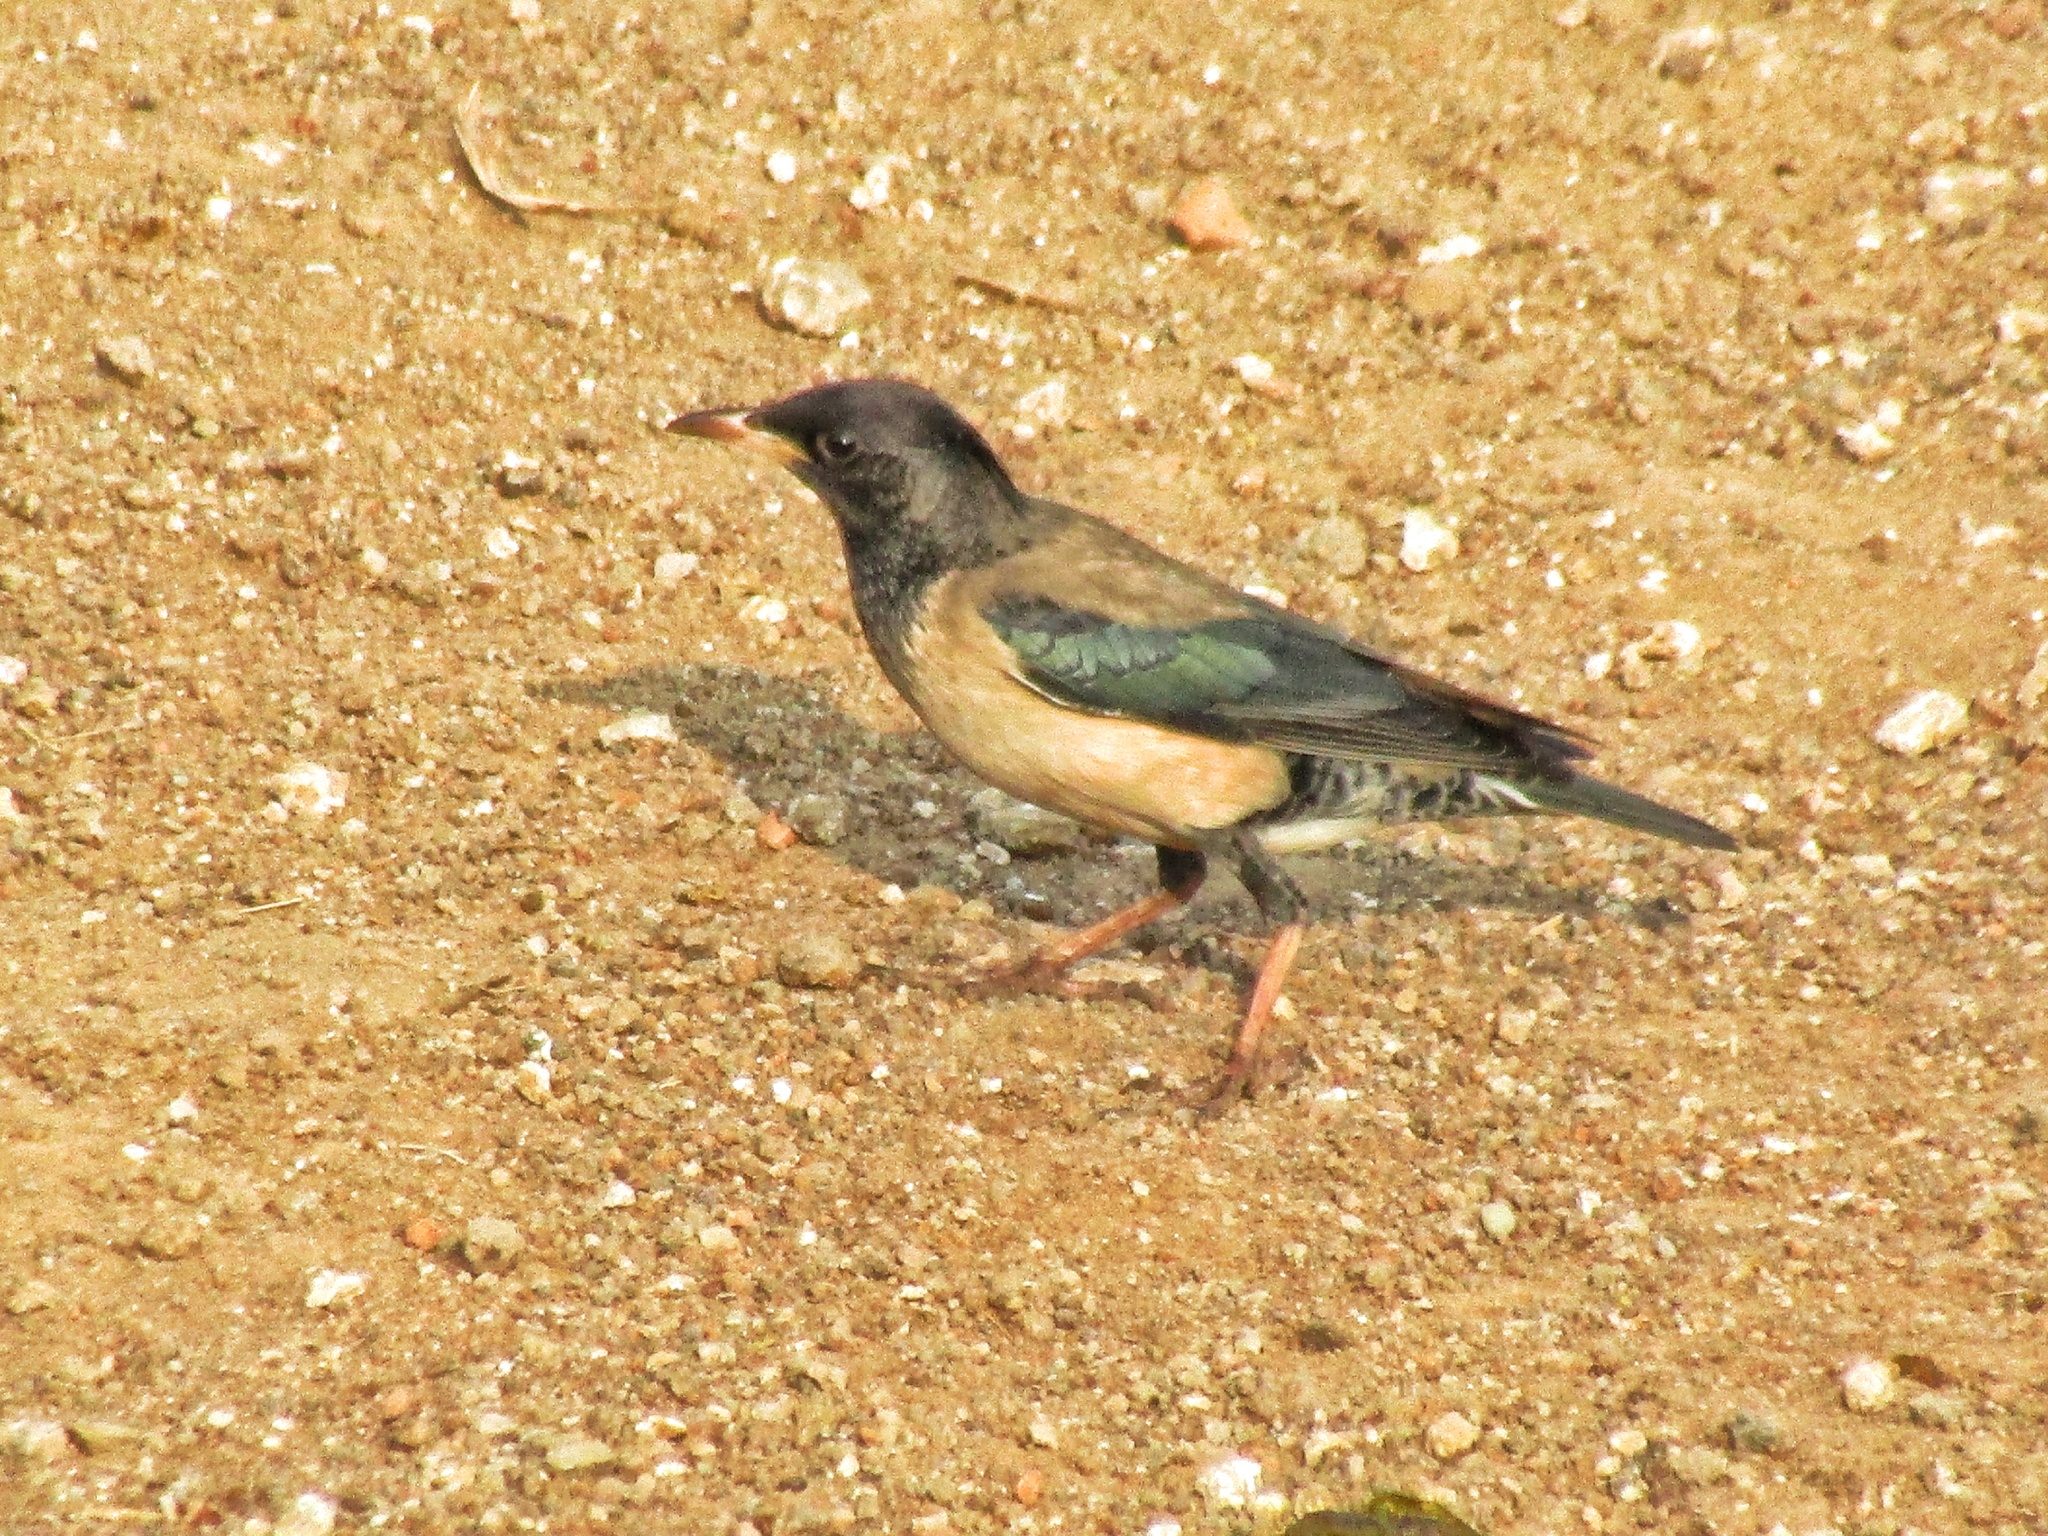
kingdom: Animalia
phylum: Chordata
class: Aves
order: Passeriformes
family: Sturnidae
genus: Pastor
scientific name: Pastor roseus
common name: Rosy starling
